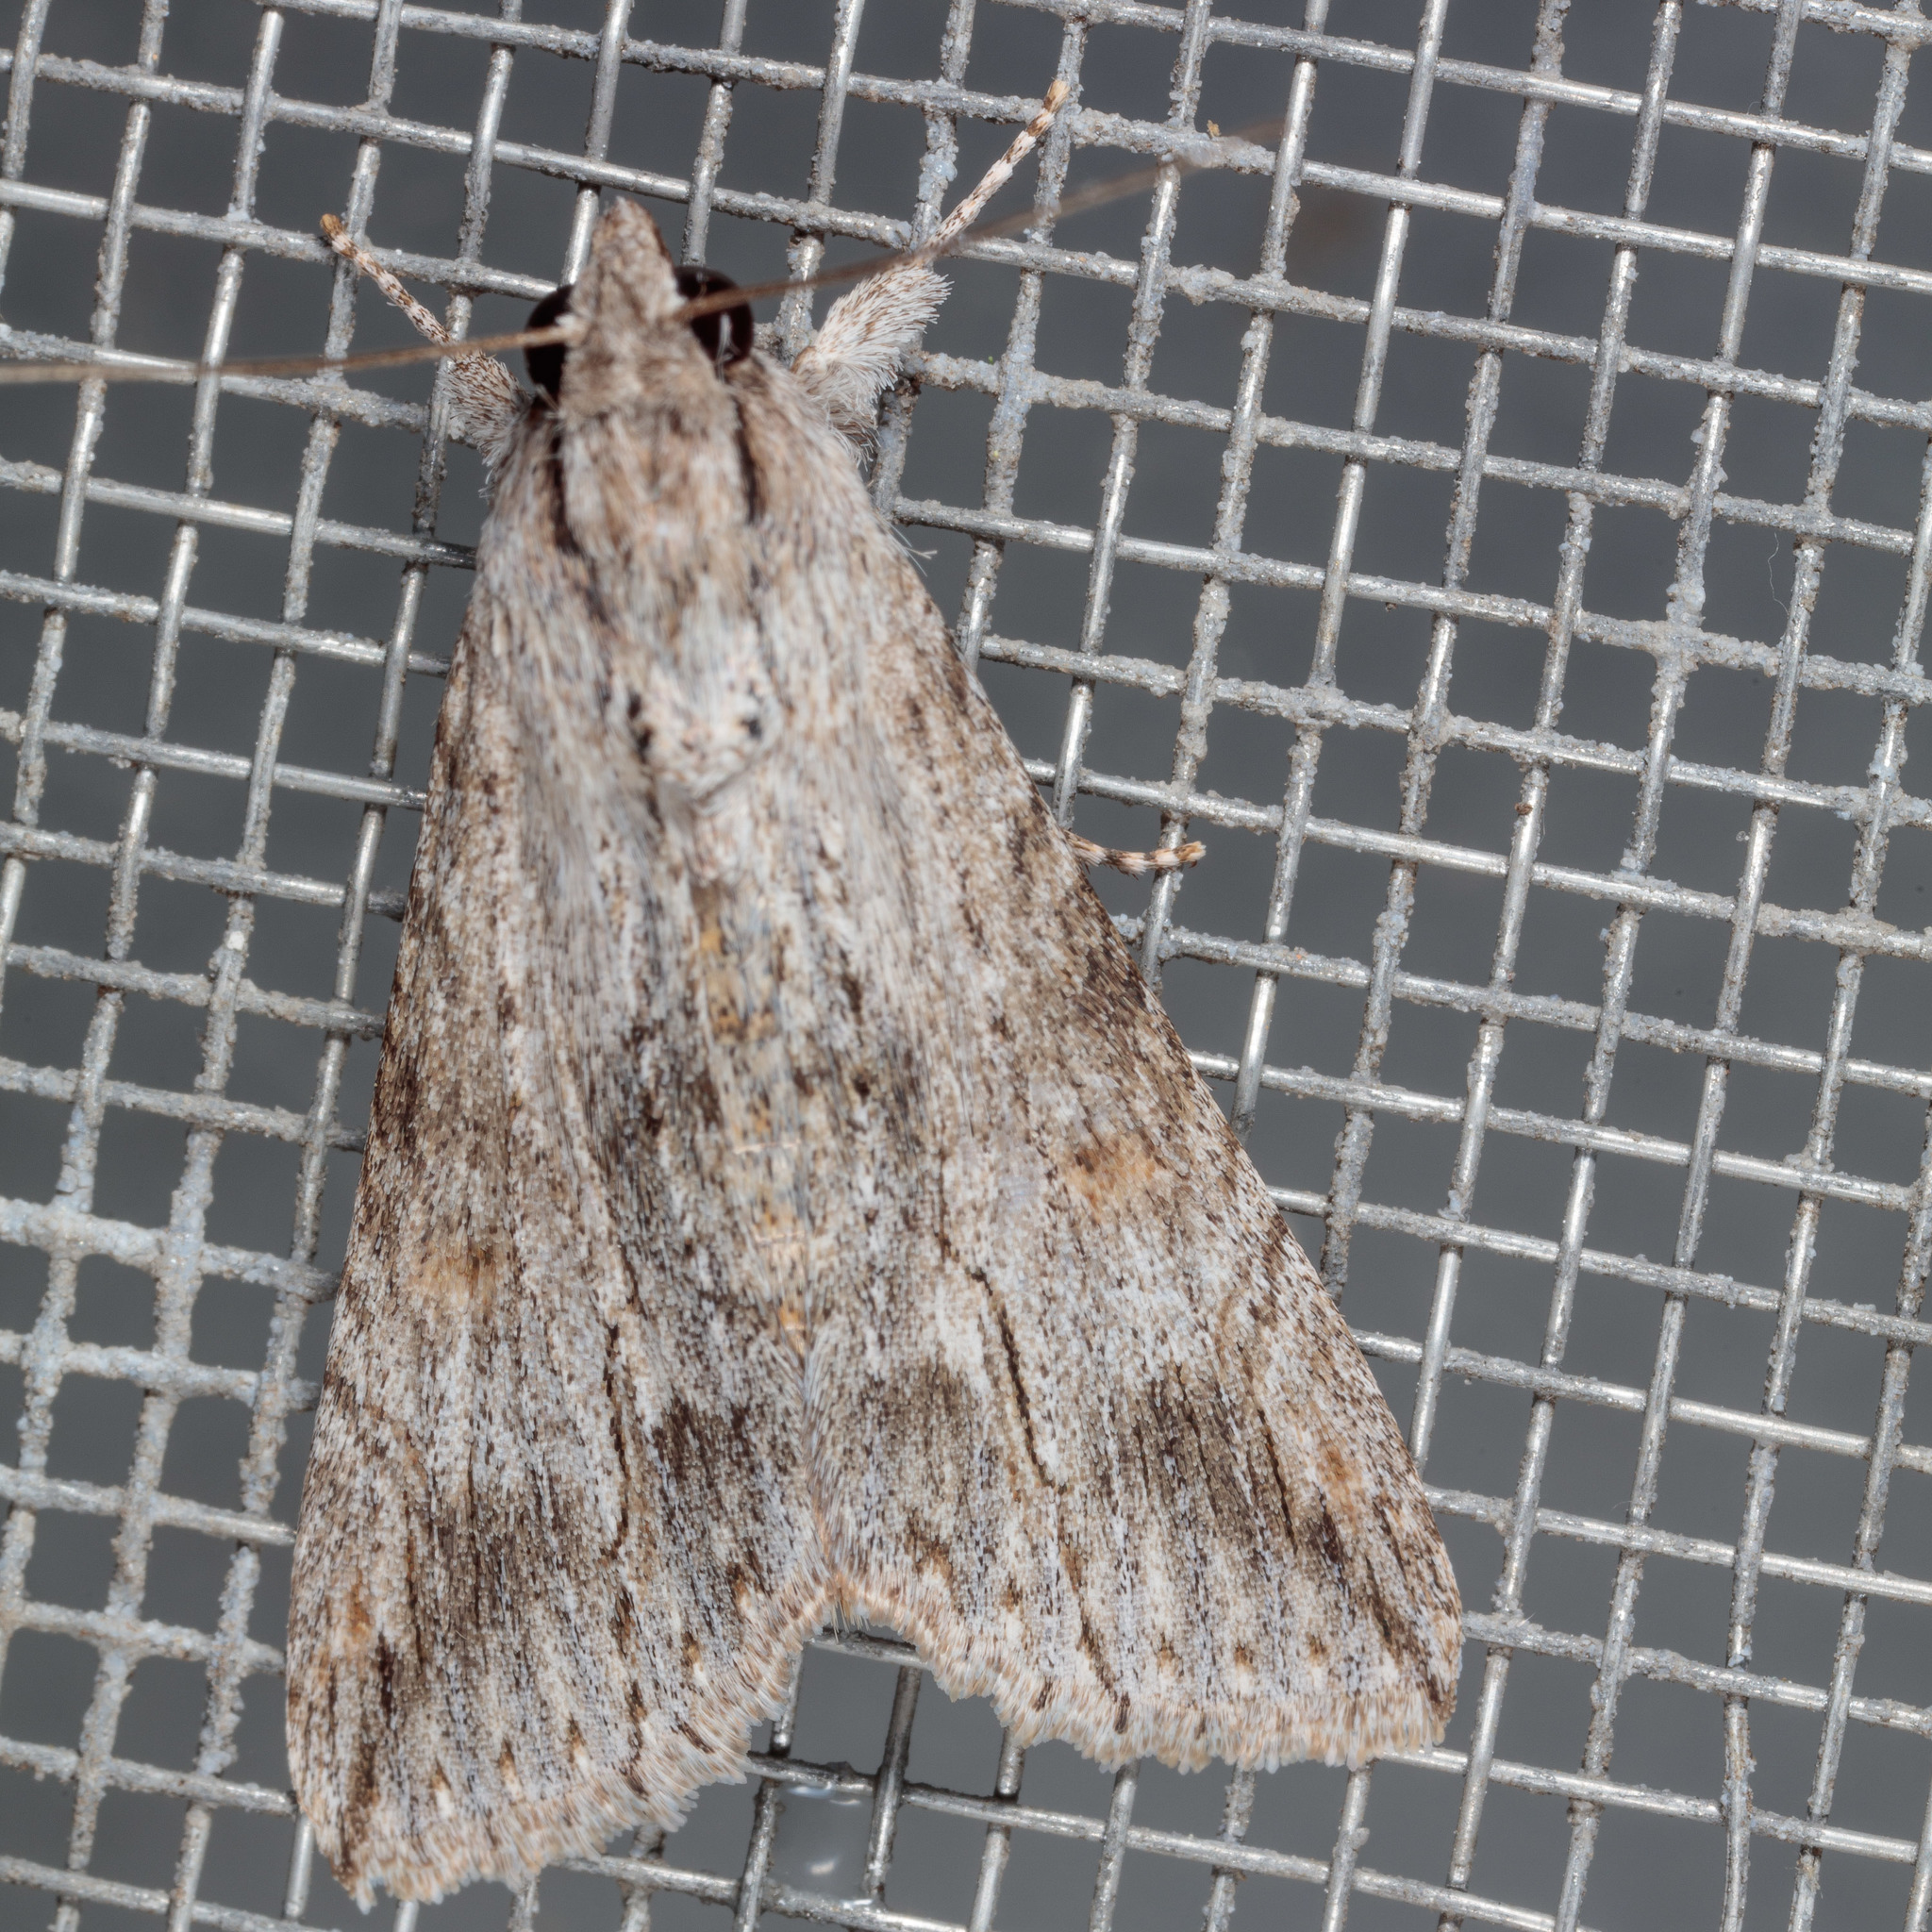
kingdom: Animalia
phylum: Arthropoda
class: Insecta
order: Lepidoptera
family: Erebidae
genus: Melipotis
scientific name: Melipotis acontioides
